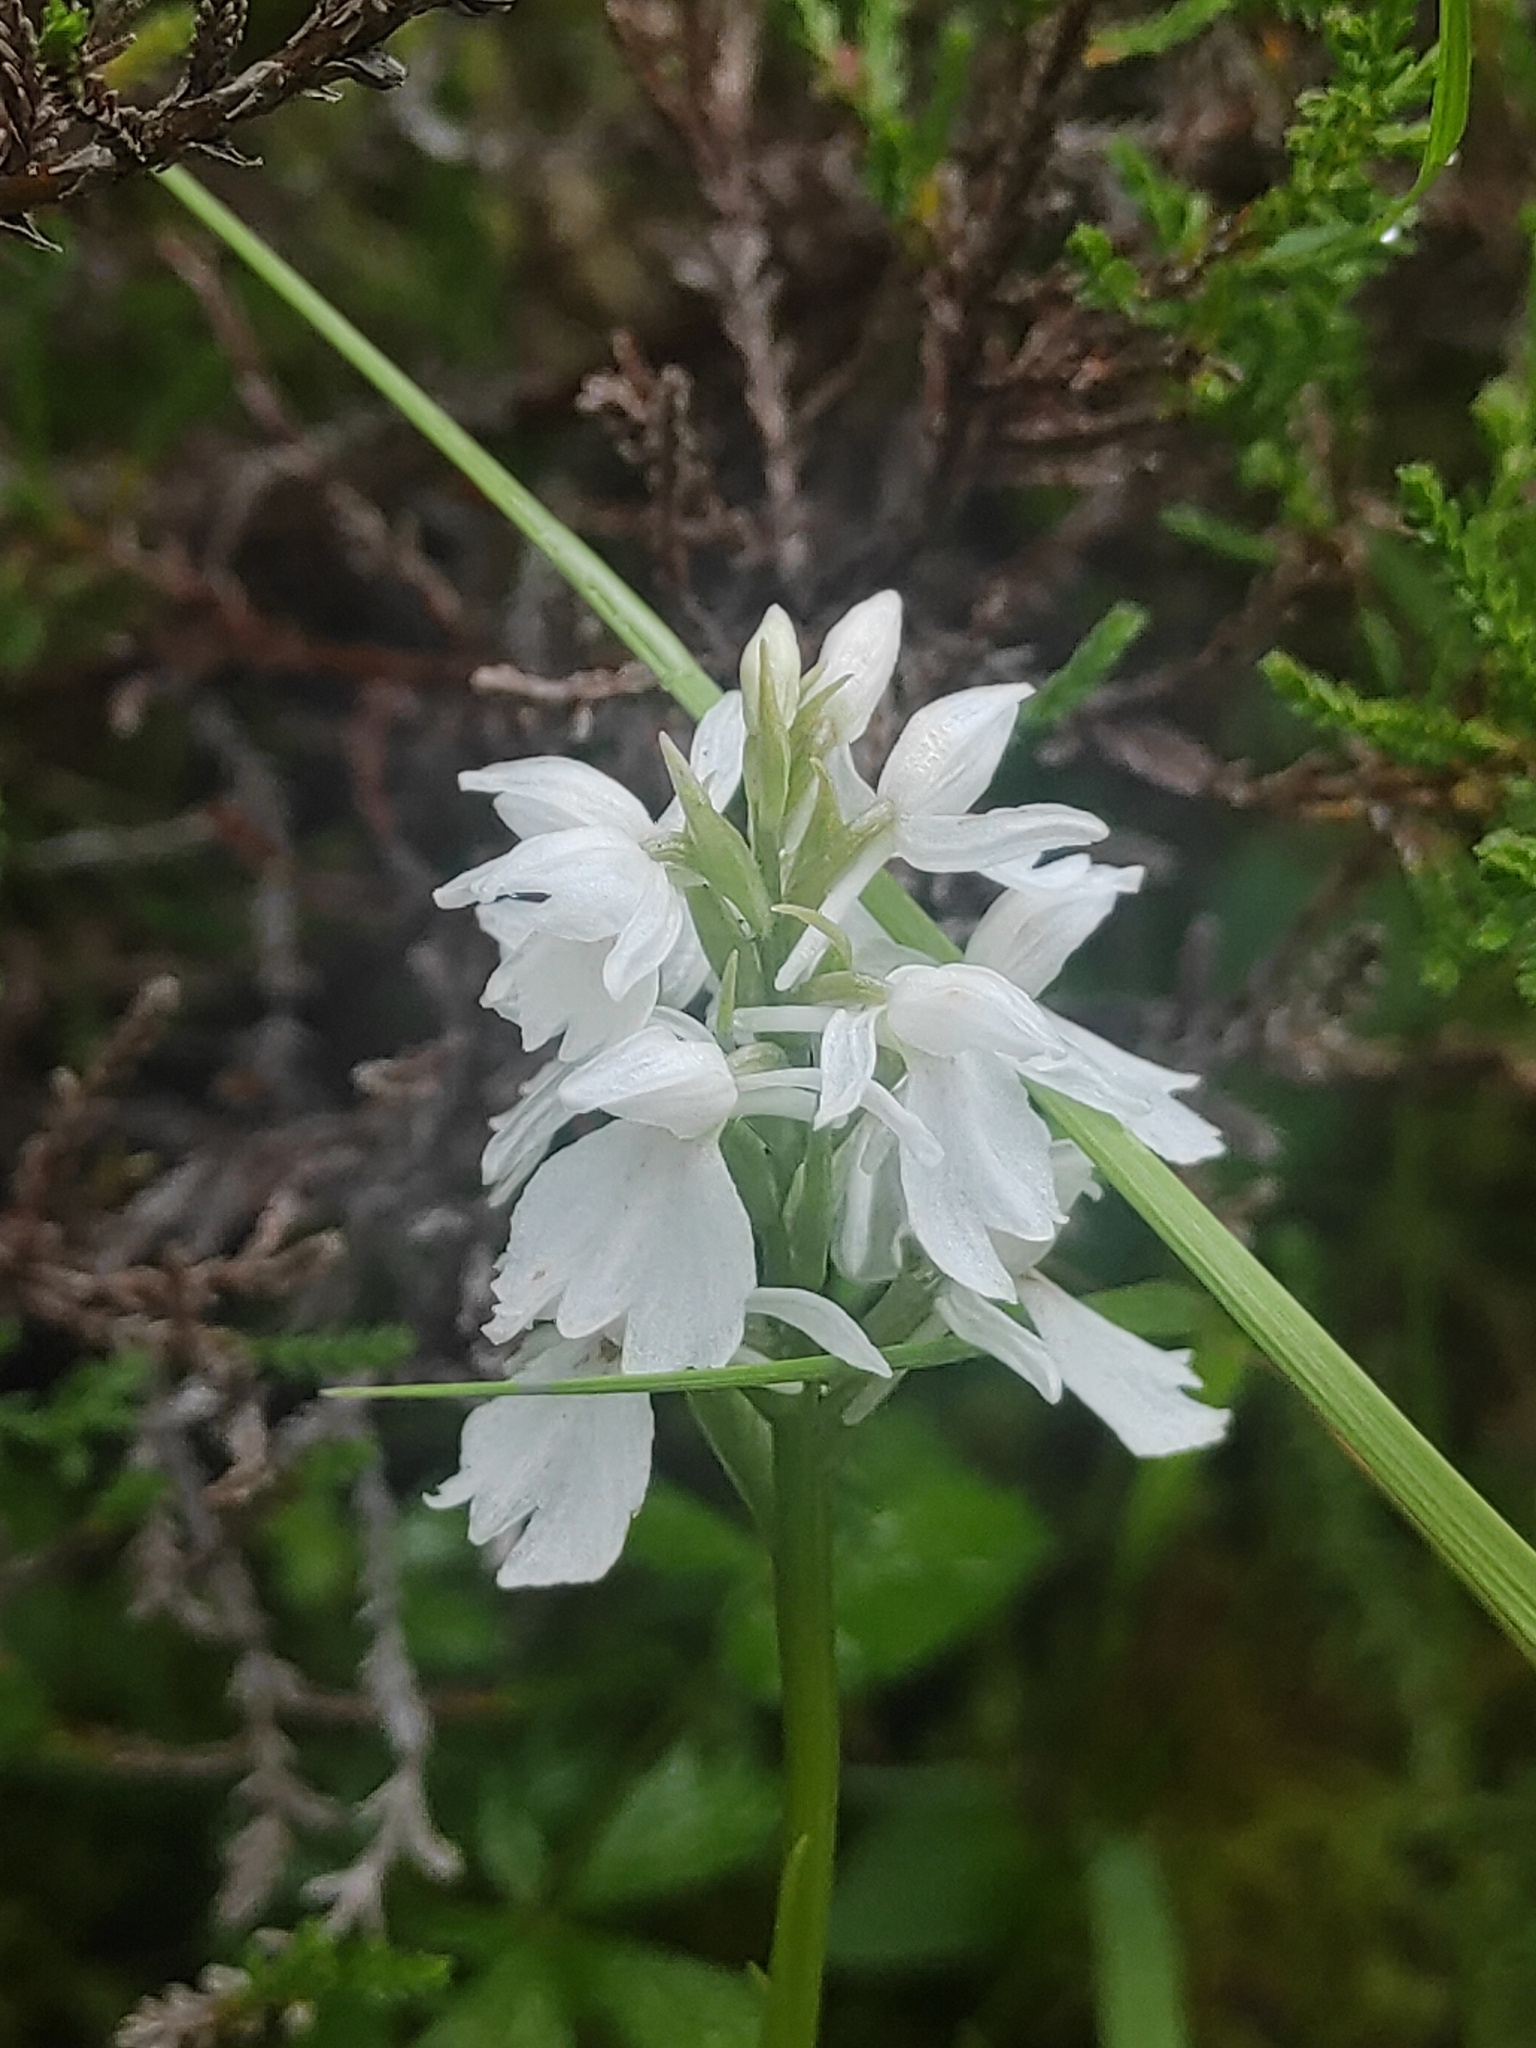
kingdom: Plantae
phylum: Tracheophyta
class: Liliopsida
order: Asparagales
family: Orchidaceae
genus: Dactylorhiza
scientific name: Dactylorhiza maculata
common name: Heath spotted-orchid
